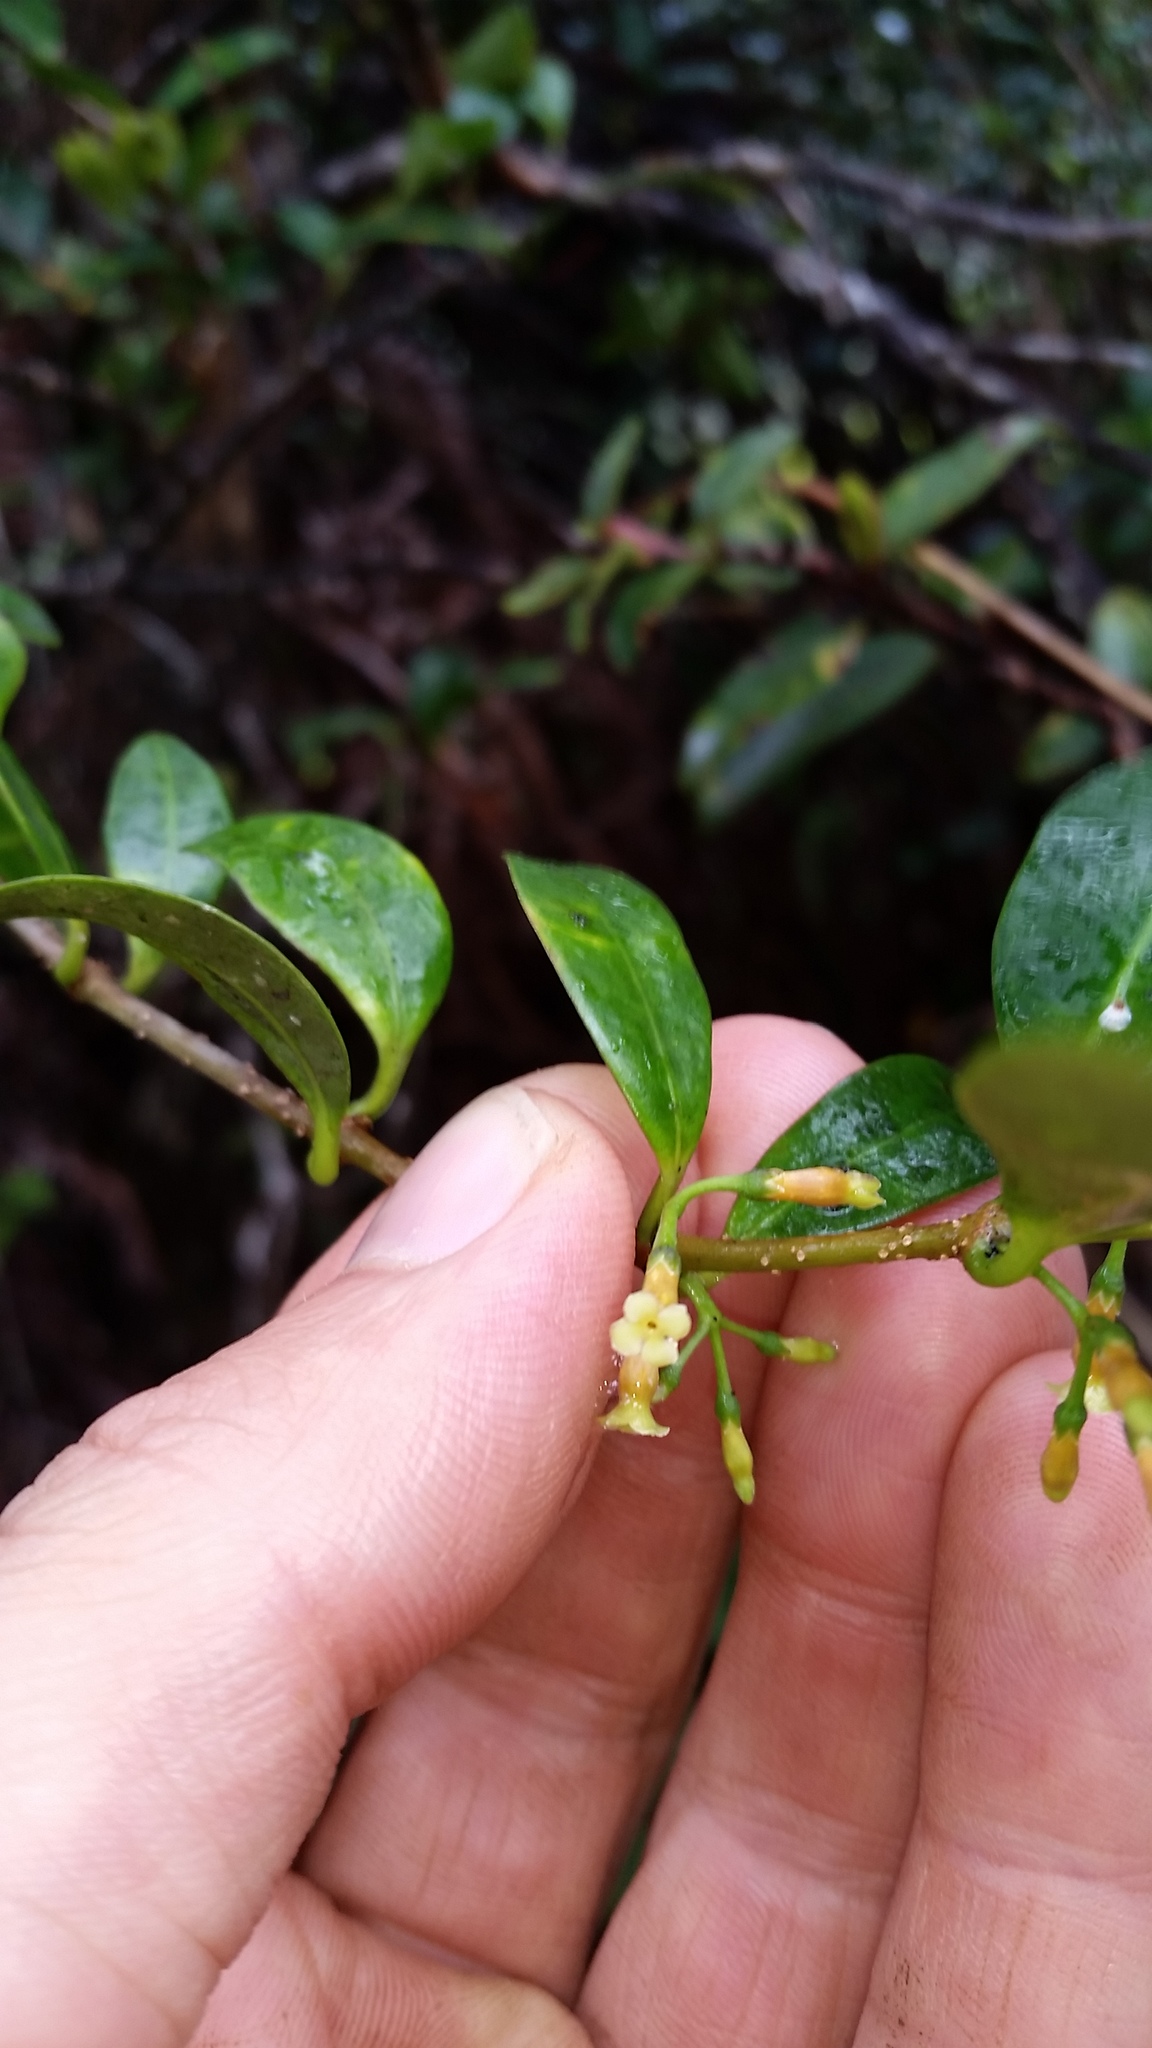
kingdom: Plantae
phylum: Tracheophyta
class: Magnoliopsida
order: Gentianales
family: Apocynaceae
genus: Alyxia
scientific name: Alyxia stellata
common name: Maile
